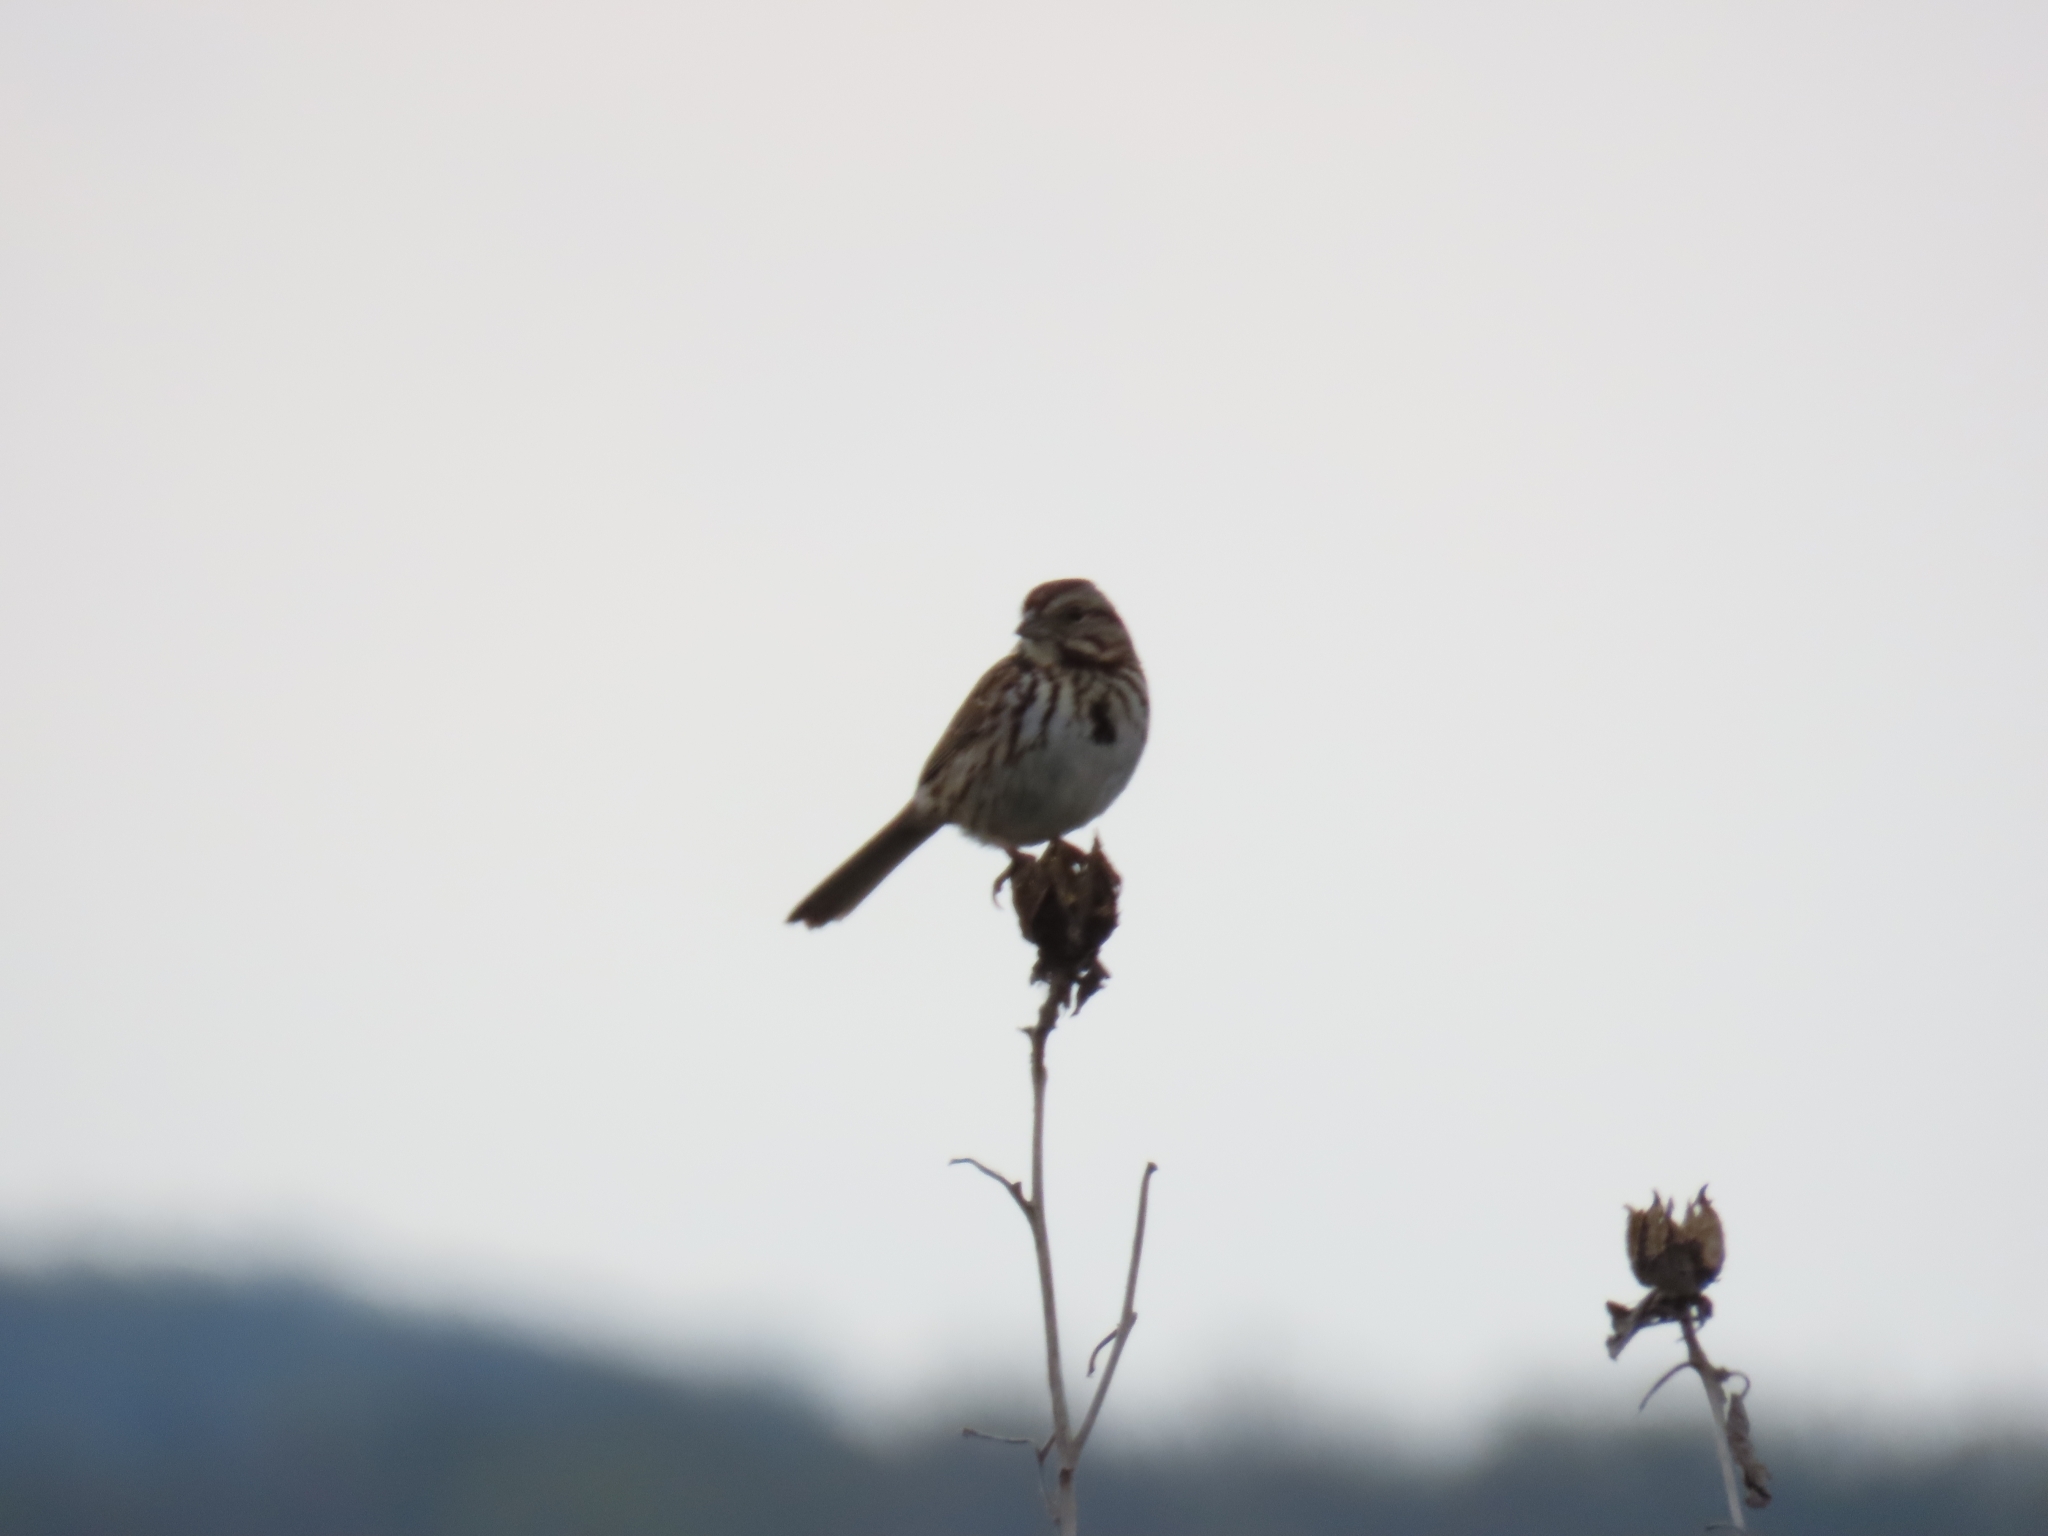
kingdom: Animalia
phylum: Chordata
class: Aves
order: Passeriformes
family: Passerellidae
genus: Melospiza
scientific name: Melospiza melodia
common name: Song sparrow
